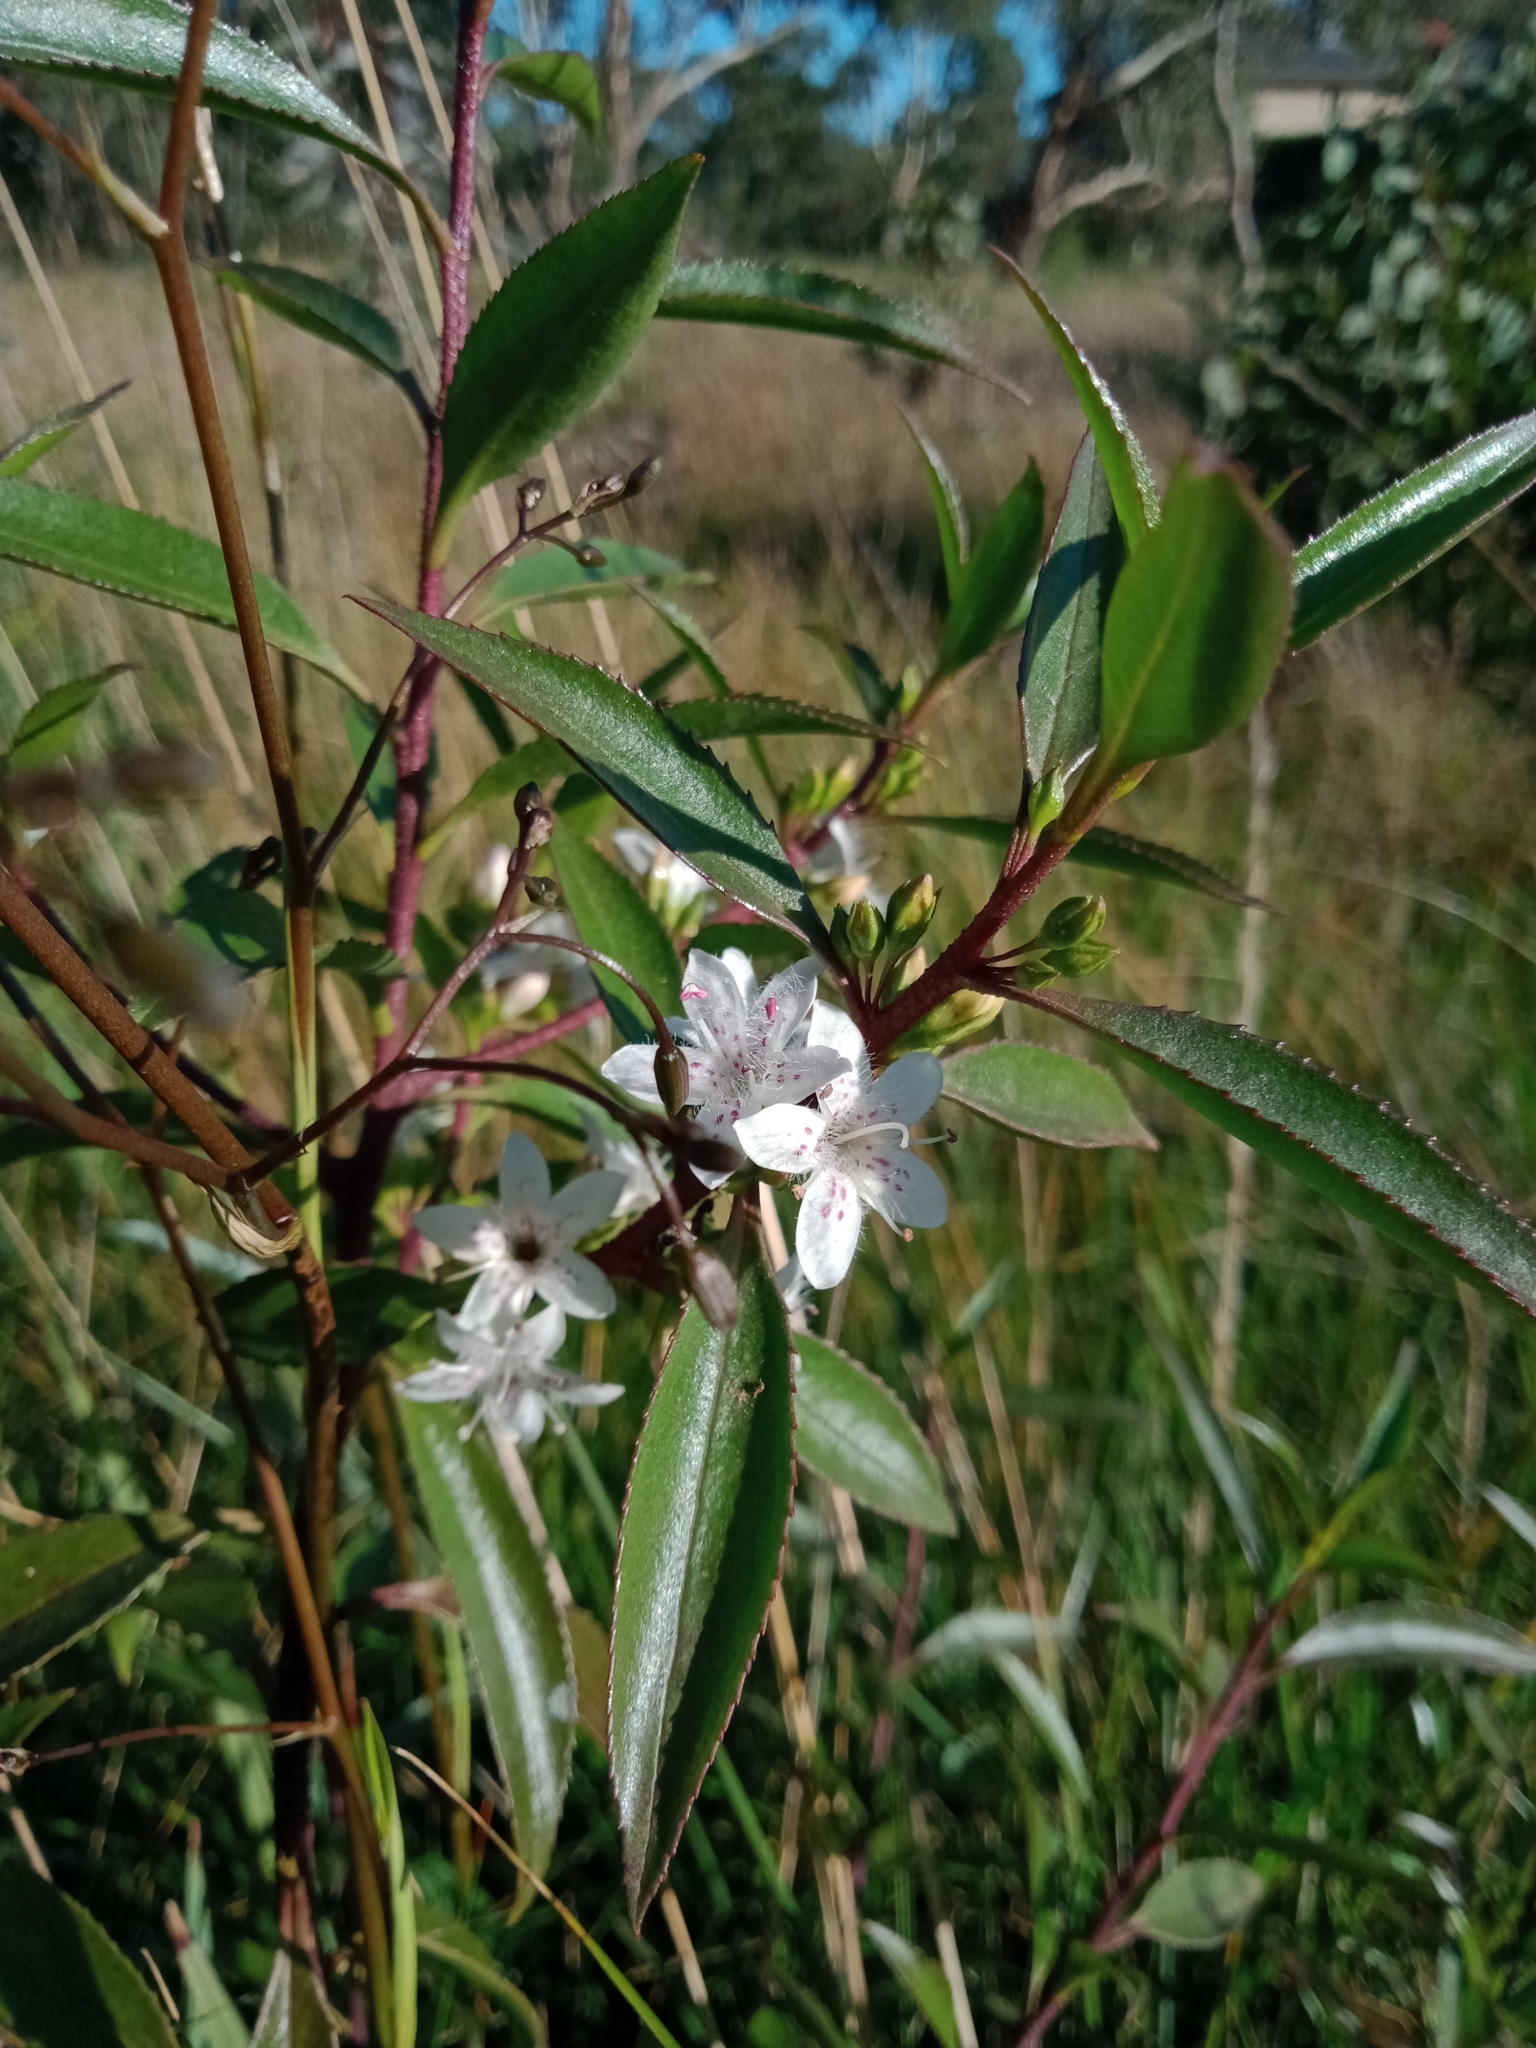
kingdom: Plantae
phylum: Tracheophyta
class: Magnoliopsida
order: Lamiales
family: Scrophulariaceae
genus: Myoporum
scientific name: Myoporum petiolatum
